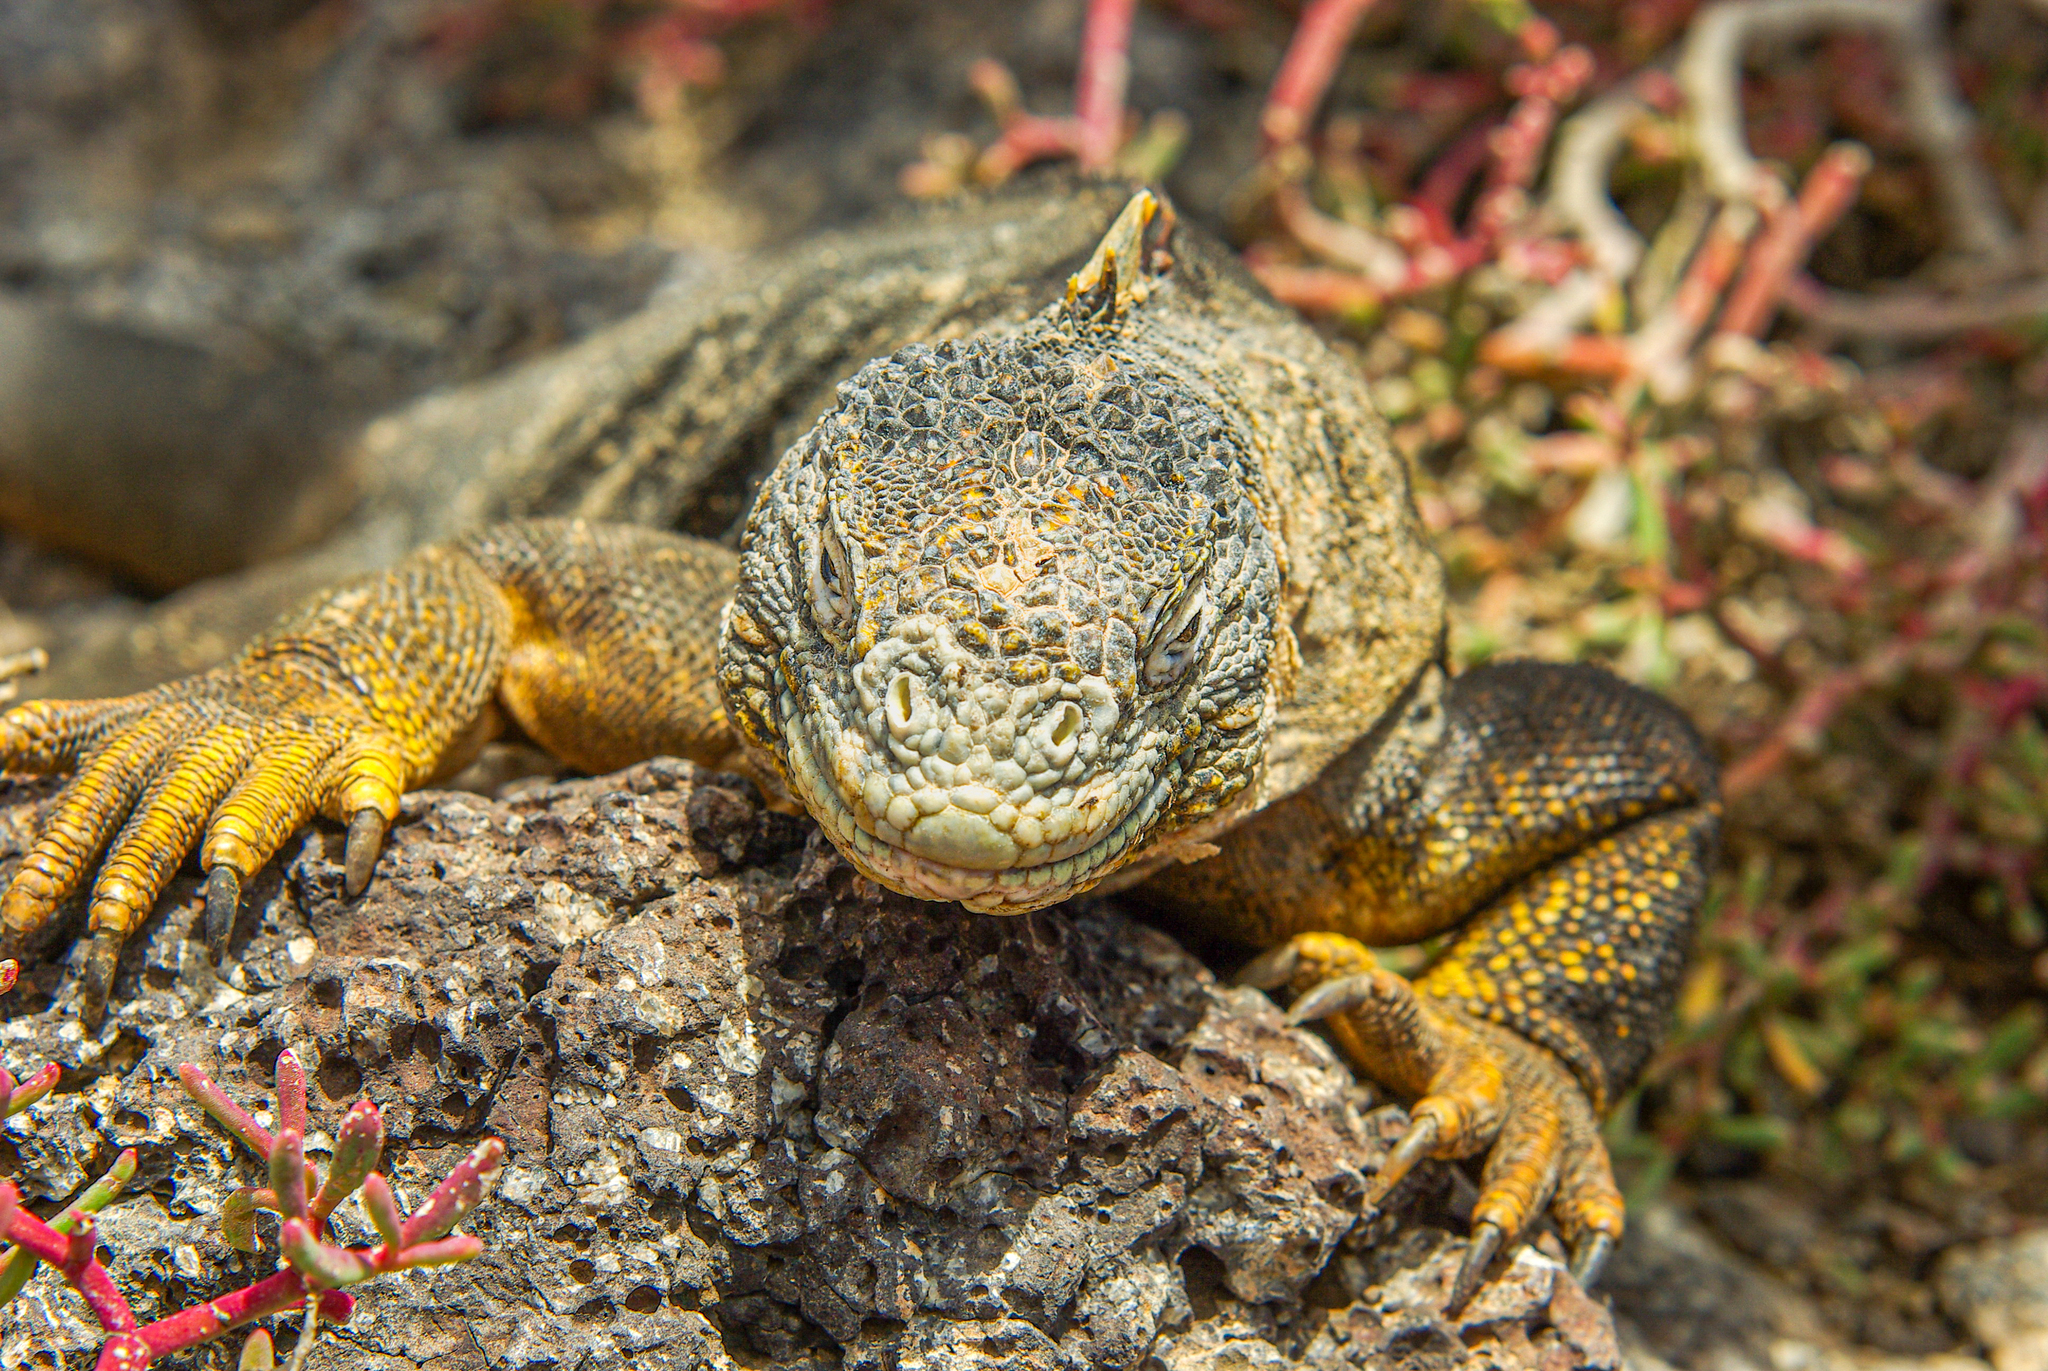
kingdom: Animalia
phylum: Chordata
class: Squamata
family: Iguanidae
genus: Conolophus
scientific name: Conolophus subcristatus
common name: Galapagos land iguana
